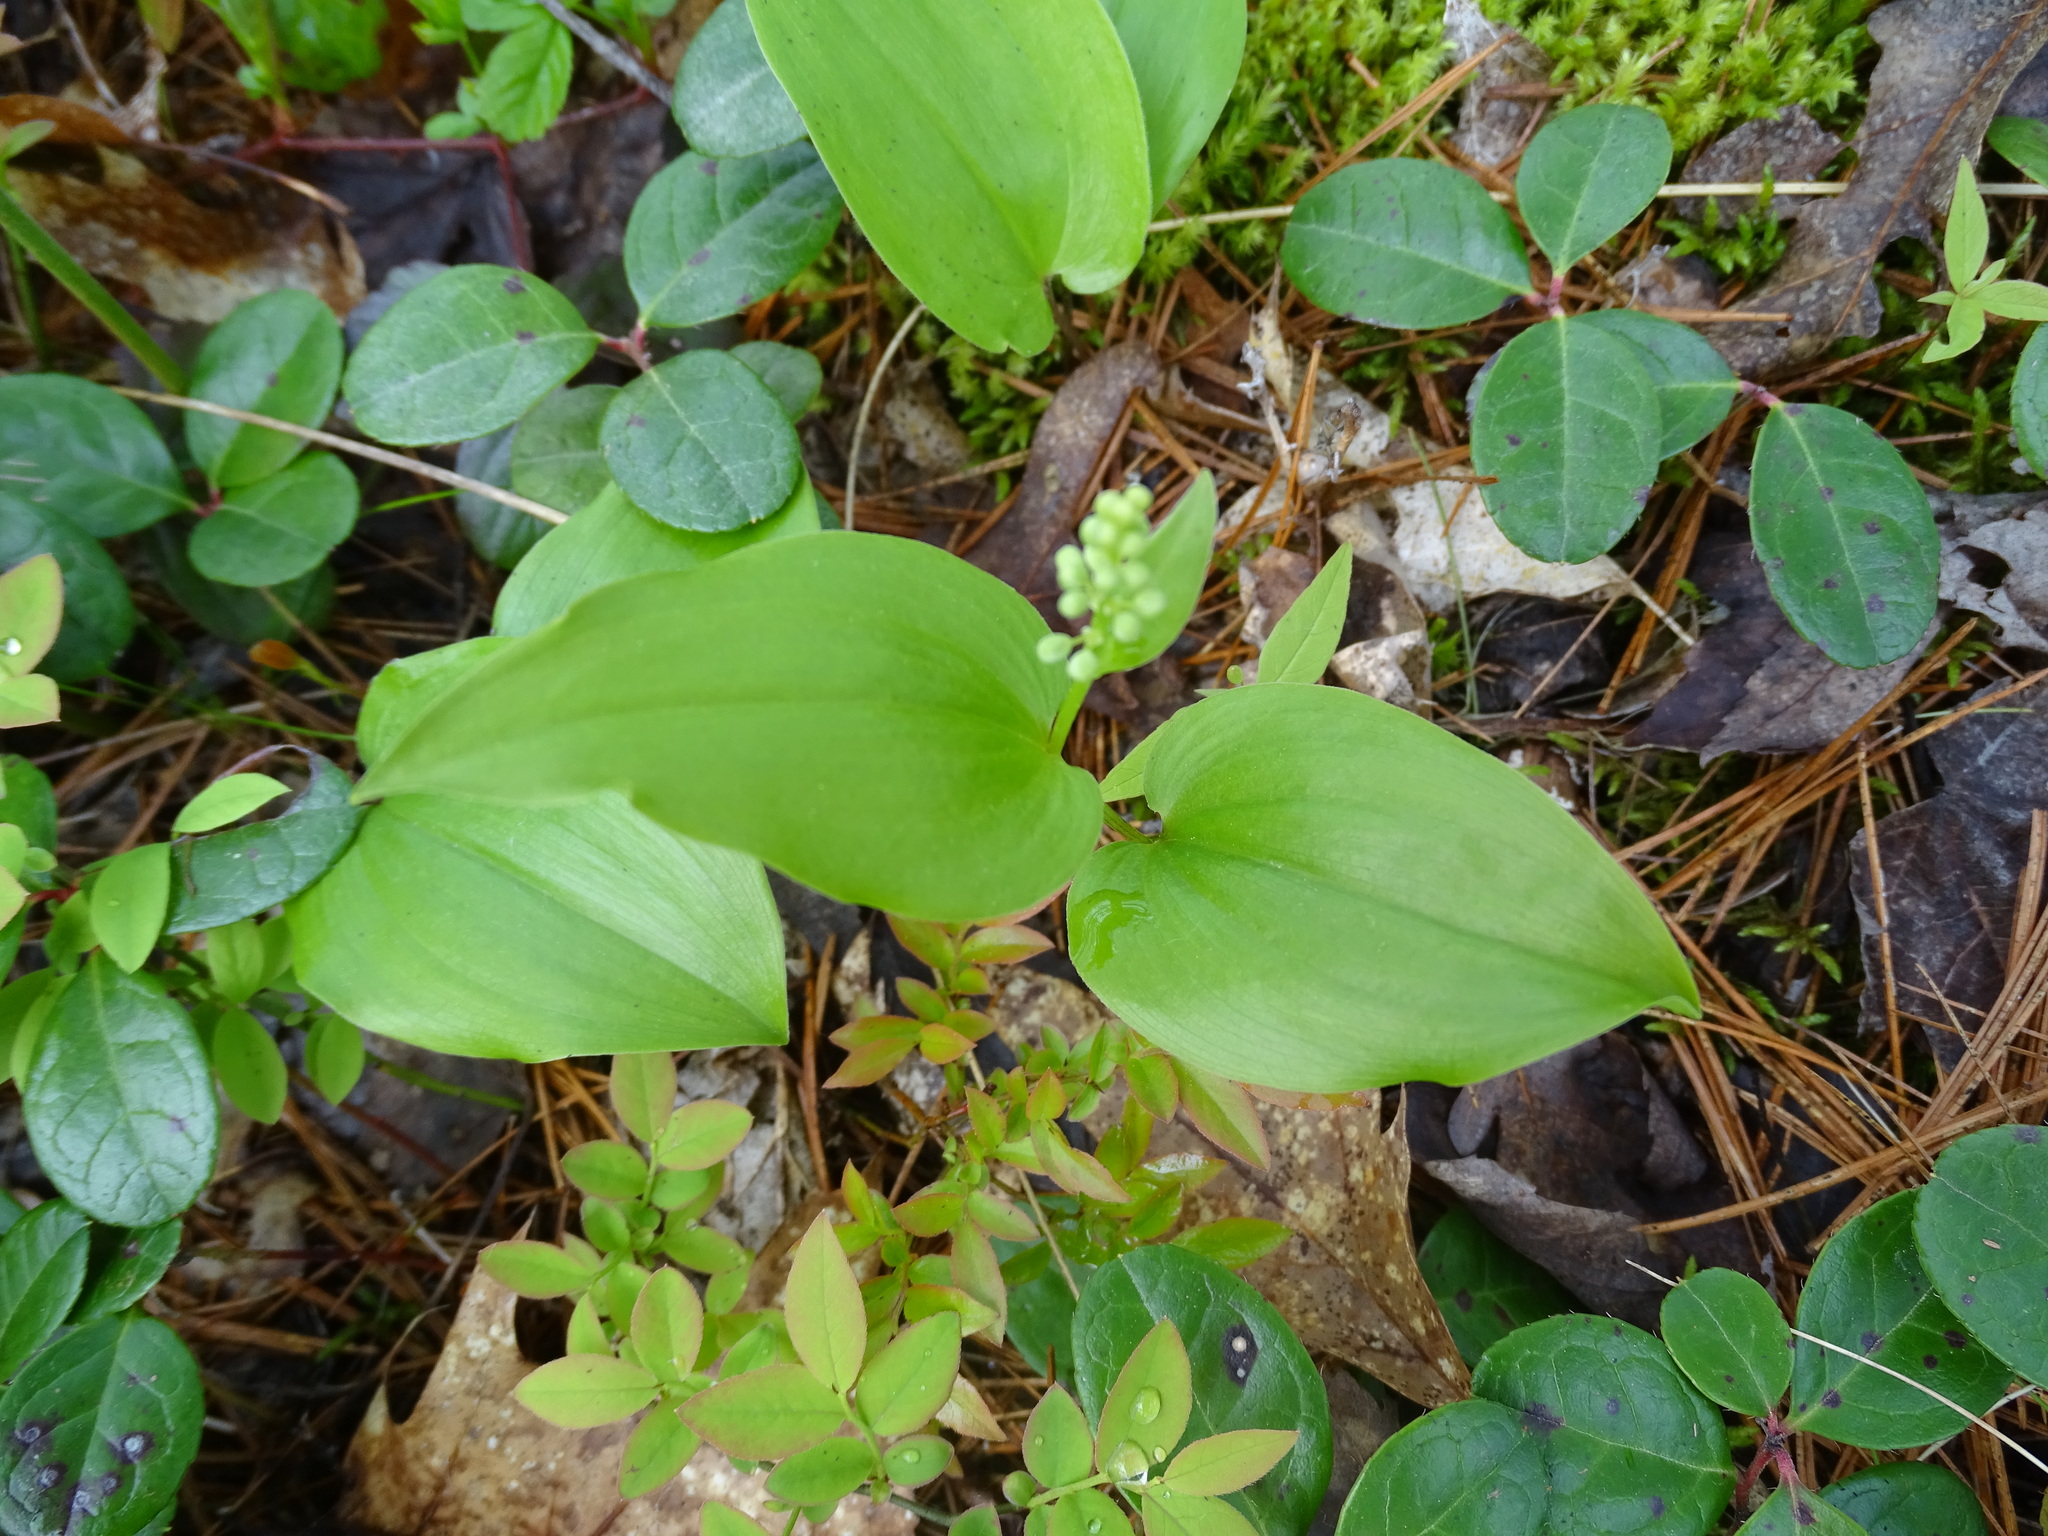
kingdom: Plantae
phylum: Tracheophyta
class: Liliopsida
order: Asparagales
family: Asparagaceae
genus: Maianthemum
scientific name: Maianthemum canadense
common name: False lily-of-the-valley
